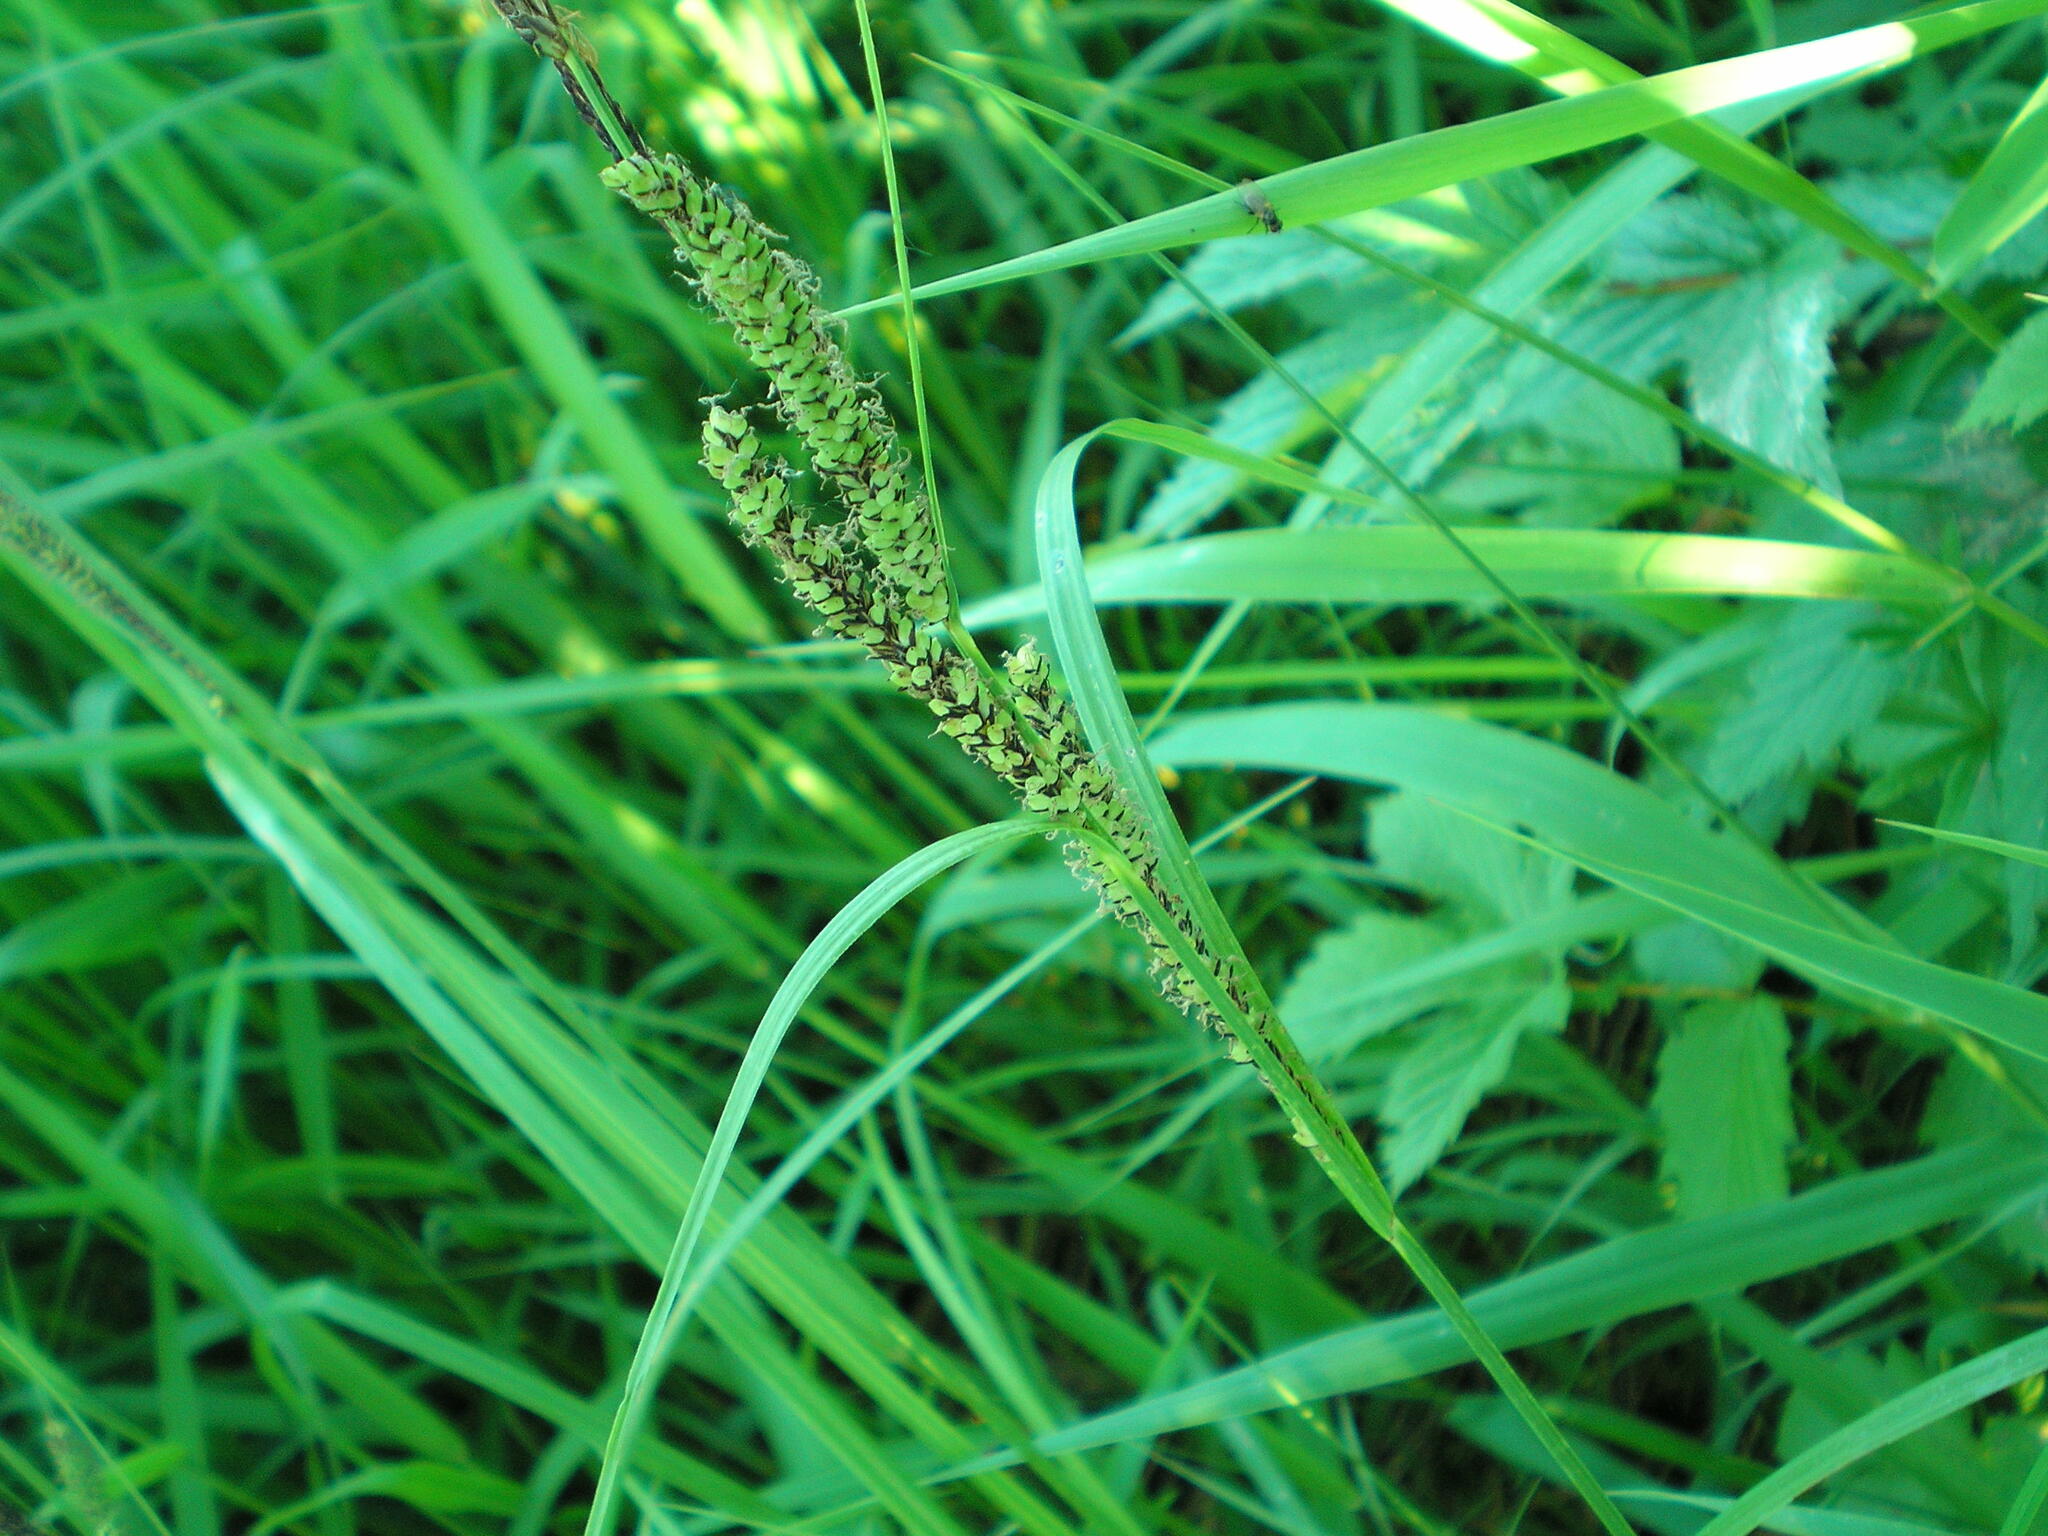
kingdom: Plantae
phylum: Tracheophyta
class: Liliopsida
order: Poales
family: Cyperaceae
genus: Carex
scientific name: Carex acuta
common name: Slender tufted-sedge
